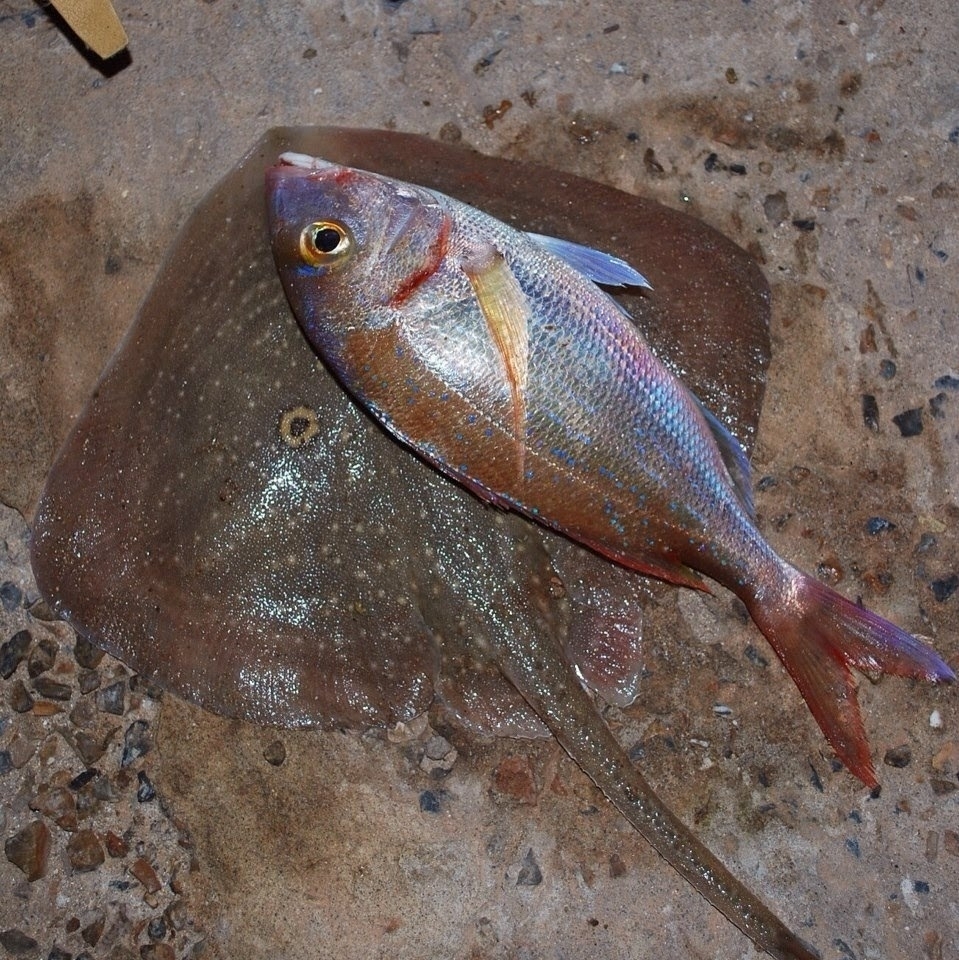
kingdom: Animalia
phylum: Chordata
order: Perciformes
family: Sparidae
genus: Pagellus
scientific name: Pagellus erythrinus
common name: Pandora
